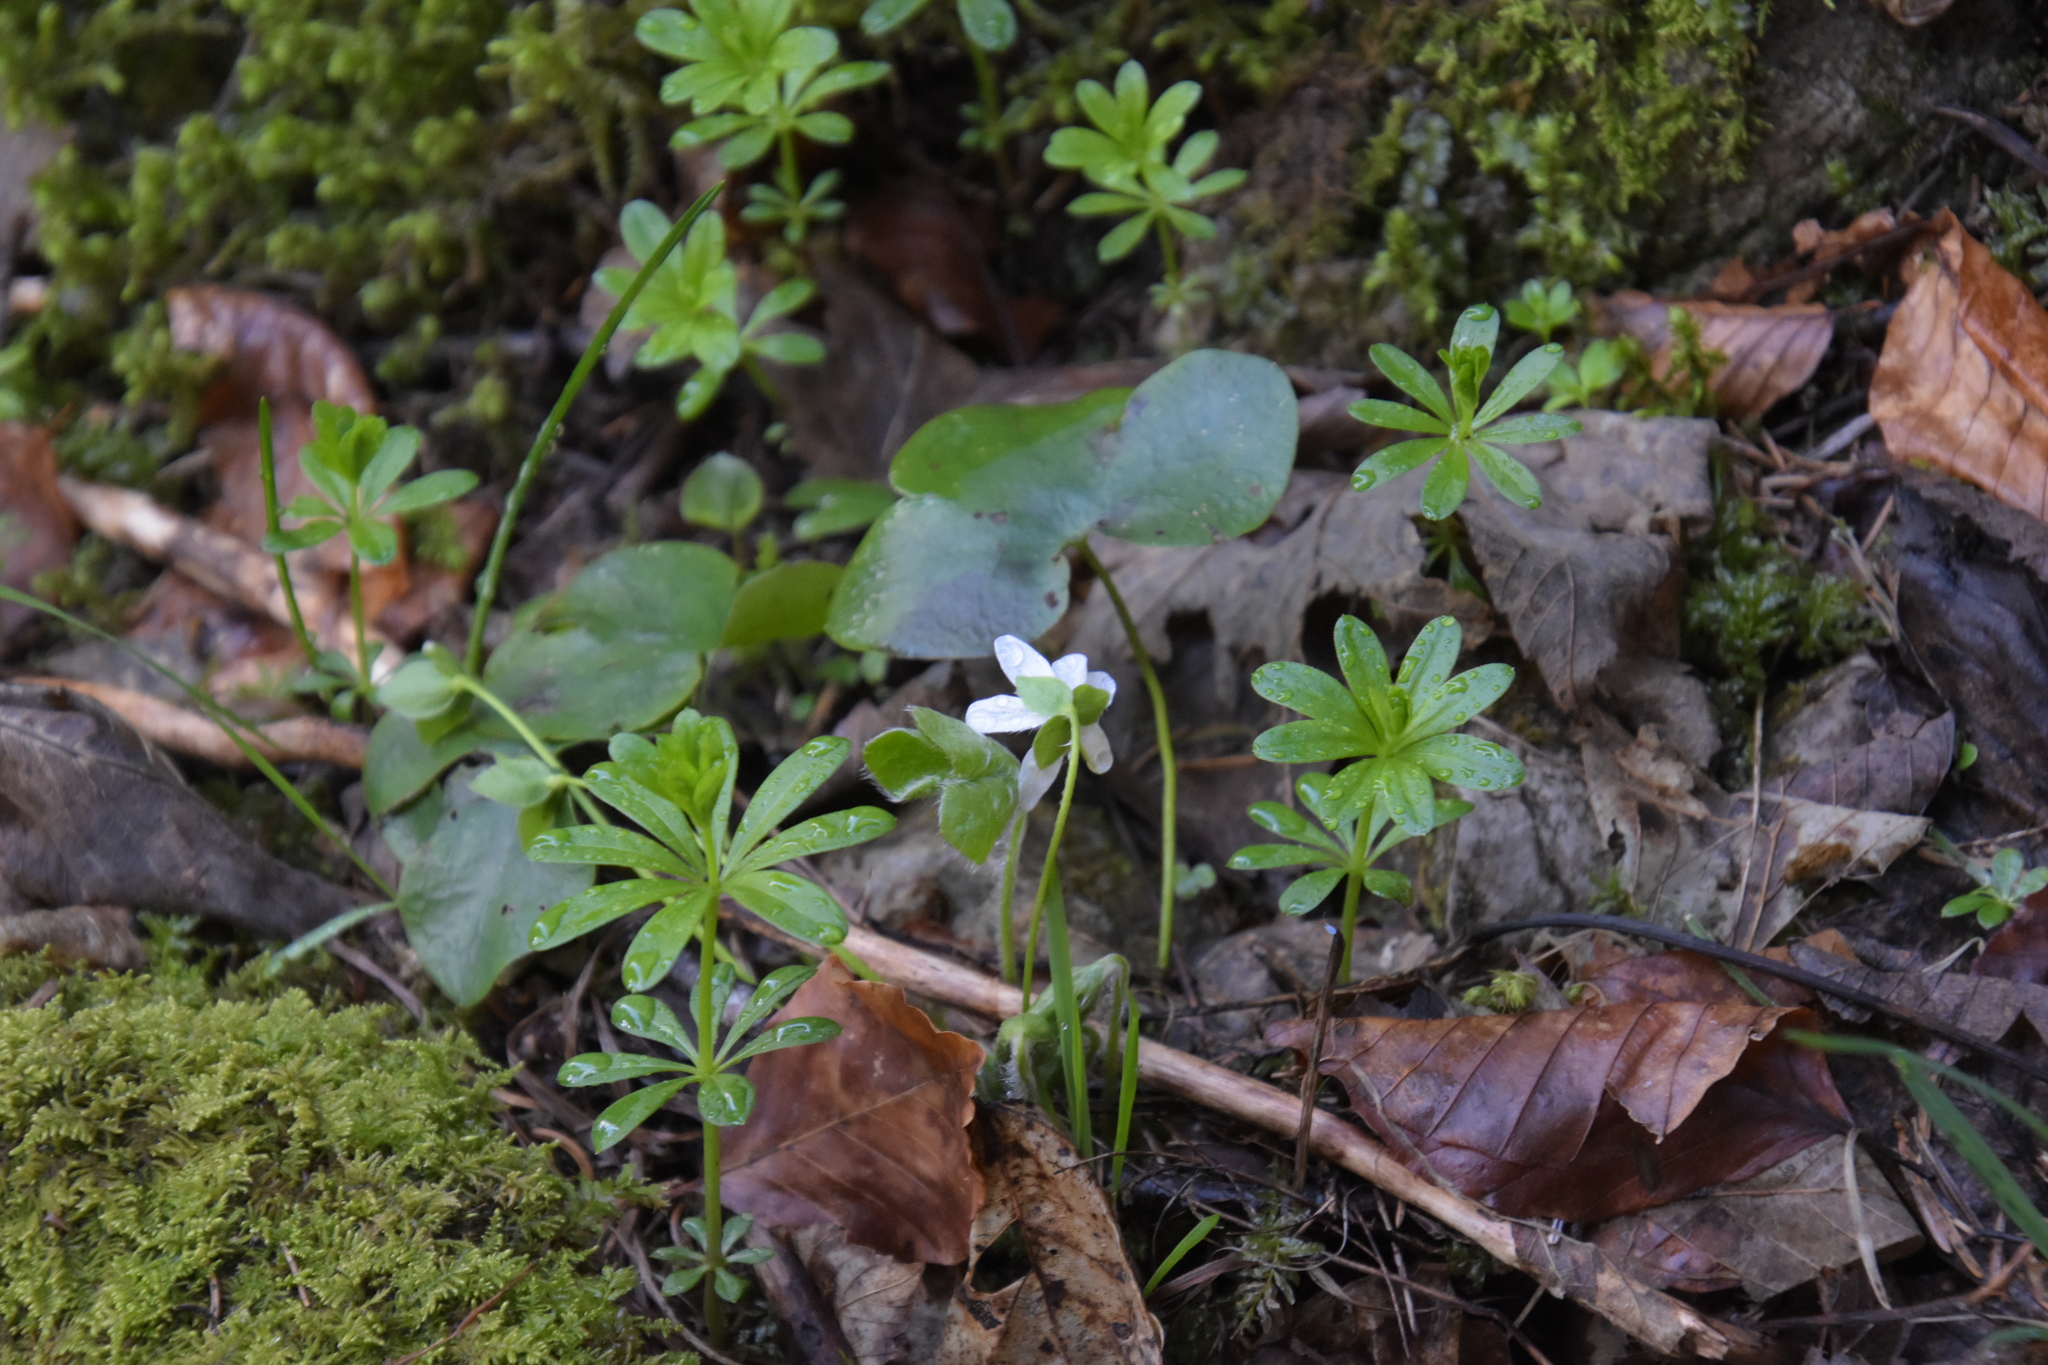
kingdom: Plantae
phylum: Tracheophyta
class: Magnoliopsida
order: Ranunculales
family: Ranunculaceae
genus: Hepatica
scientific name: Hepatica nobilis
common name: Liverleaf
